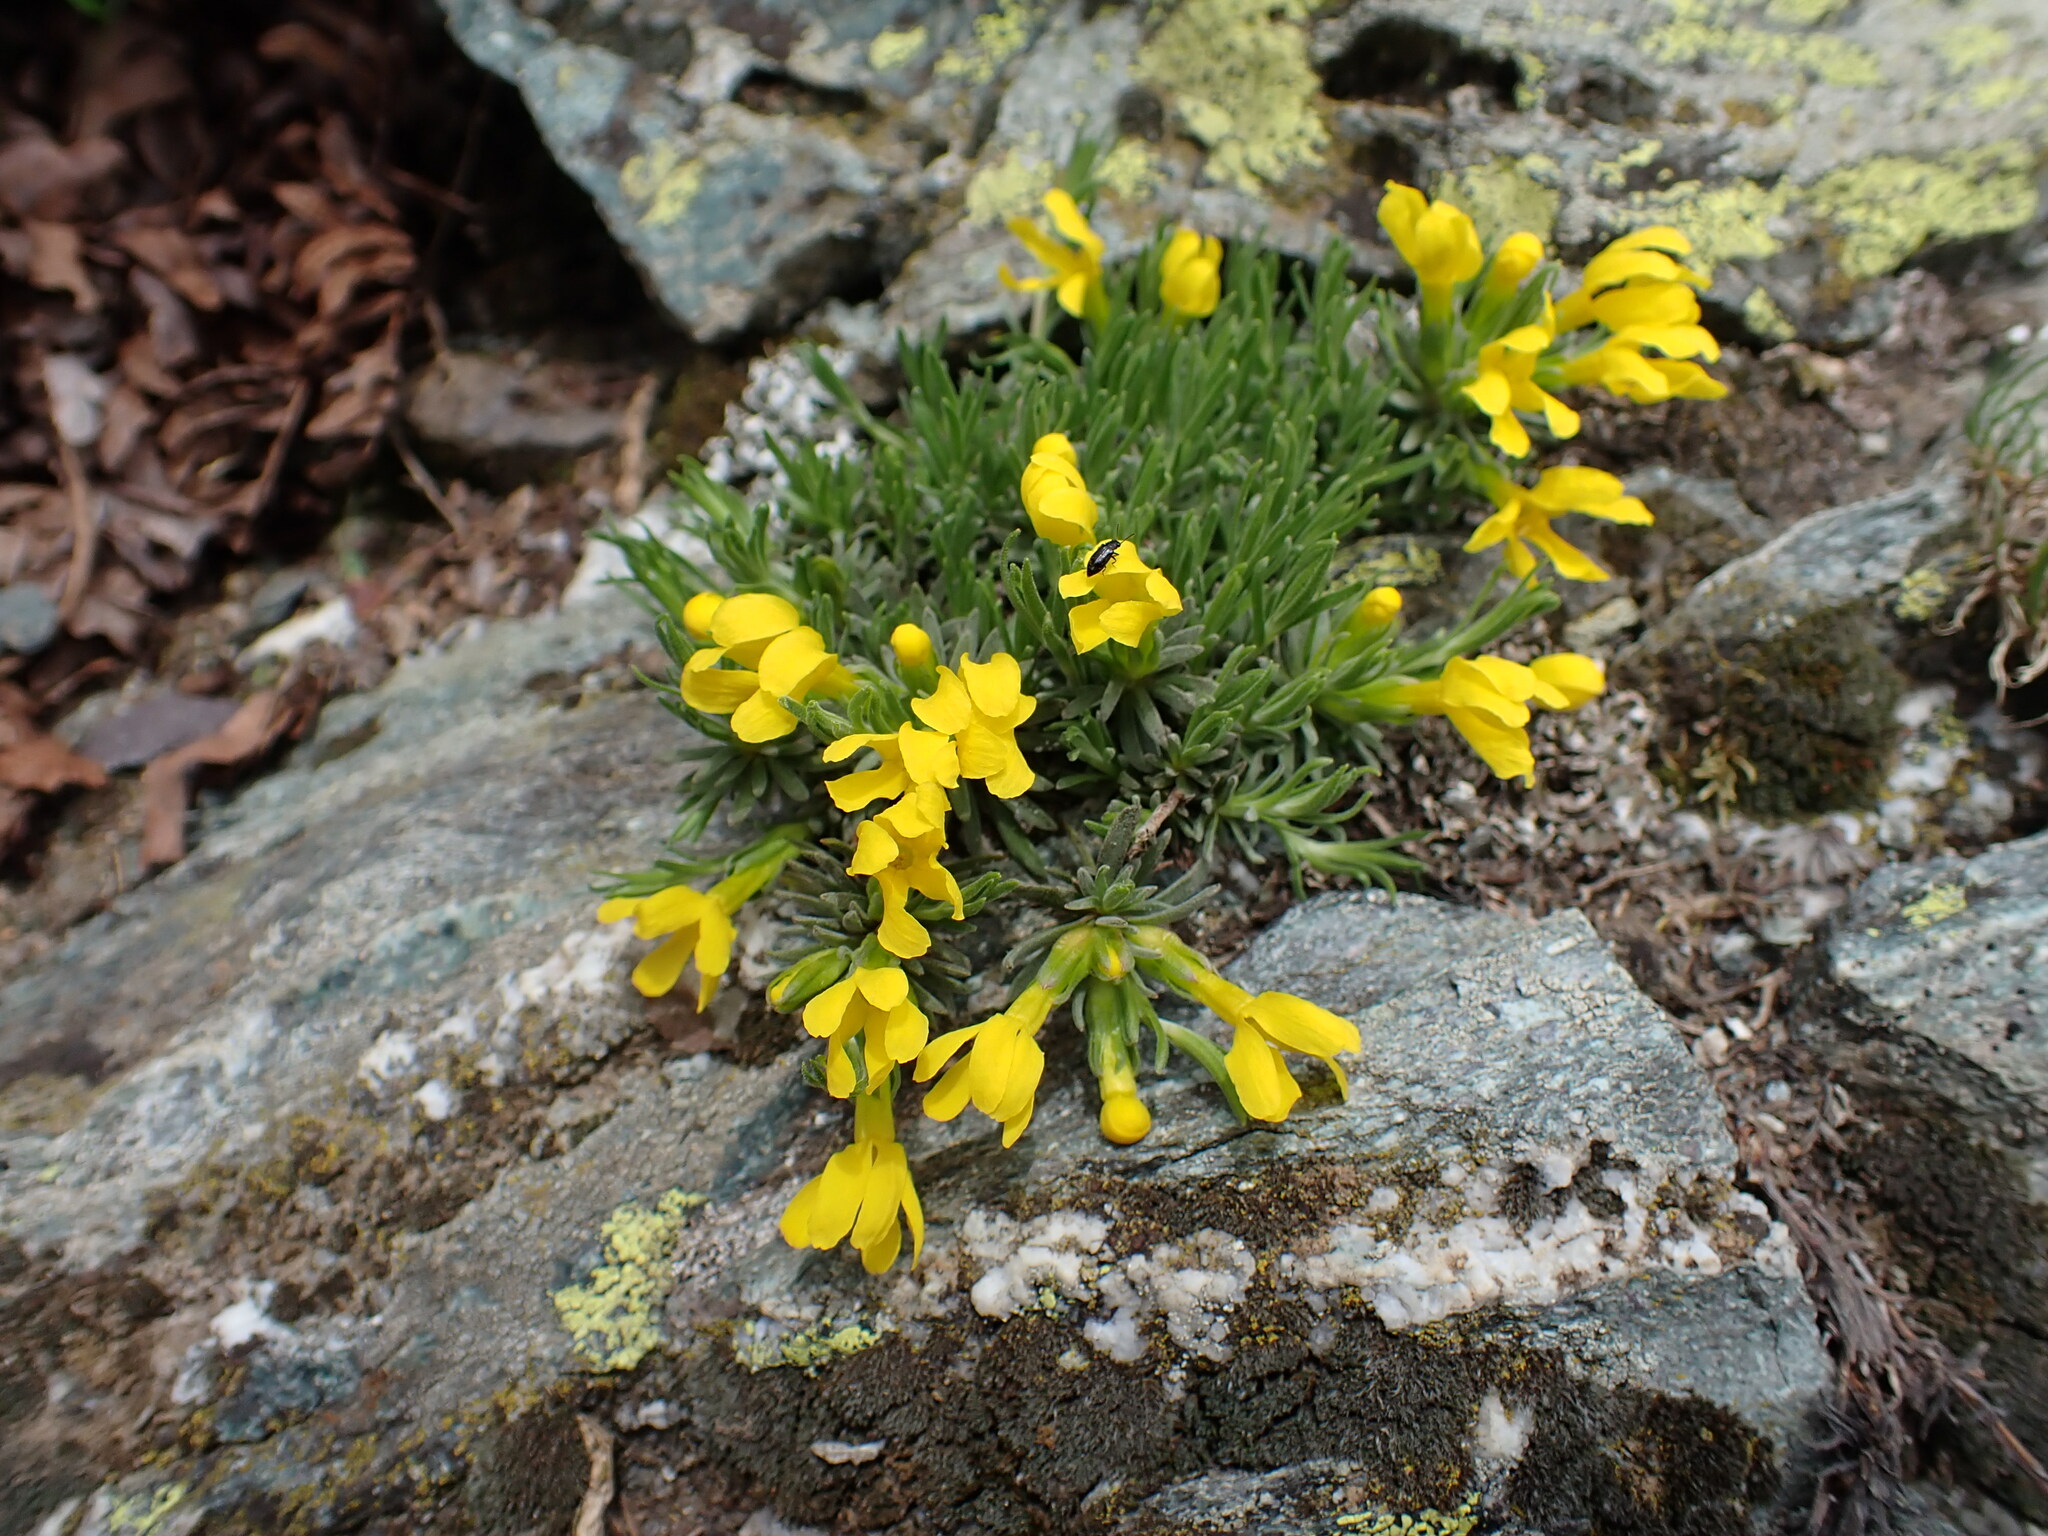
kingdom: Plantae
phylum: Tracheophyta
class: Magnoliopsida
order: Ericales
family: Primulaceae
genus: Androsace
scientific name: Androsace vitaliana
